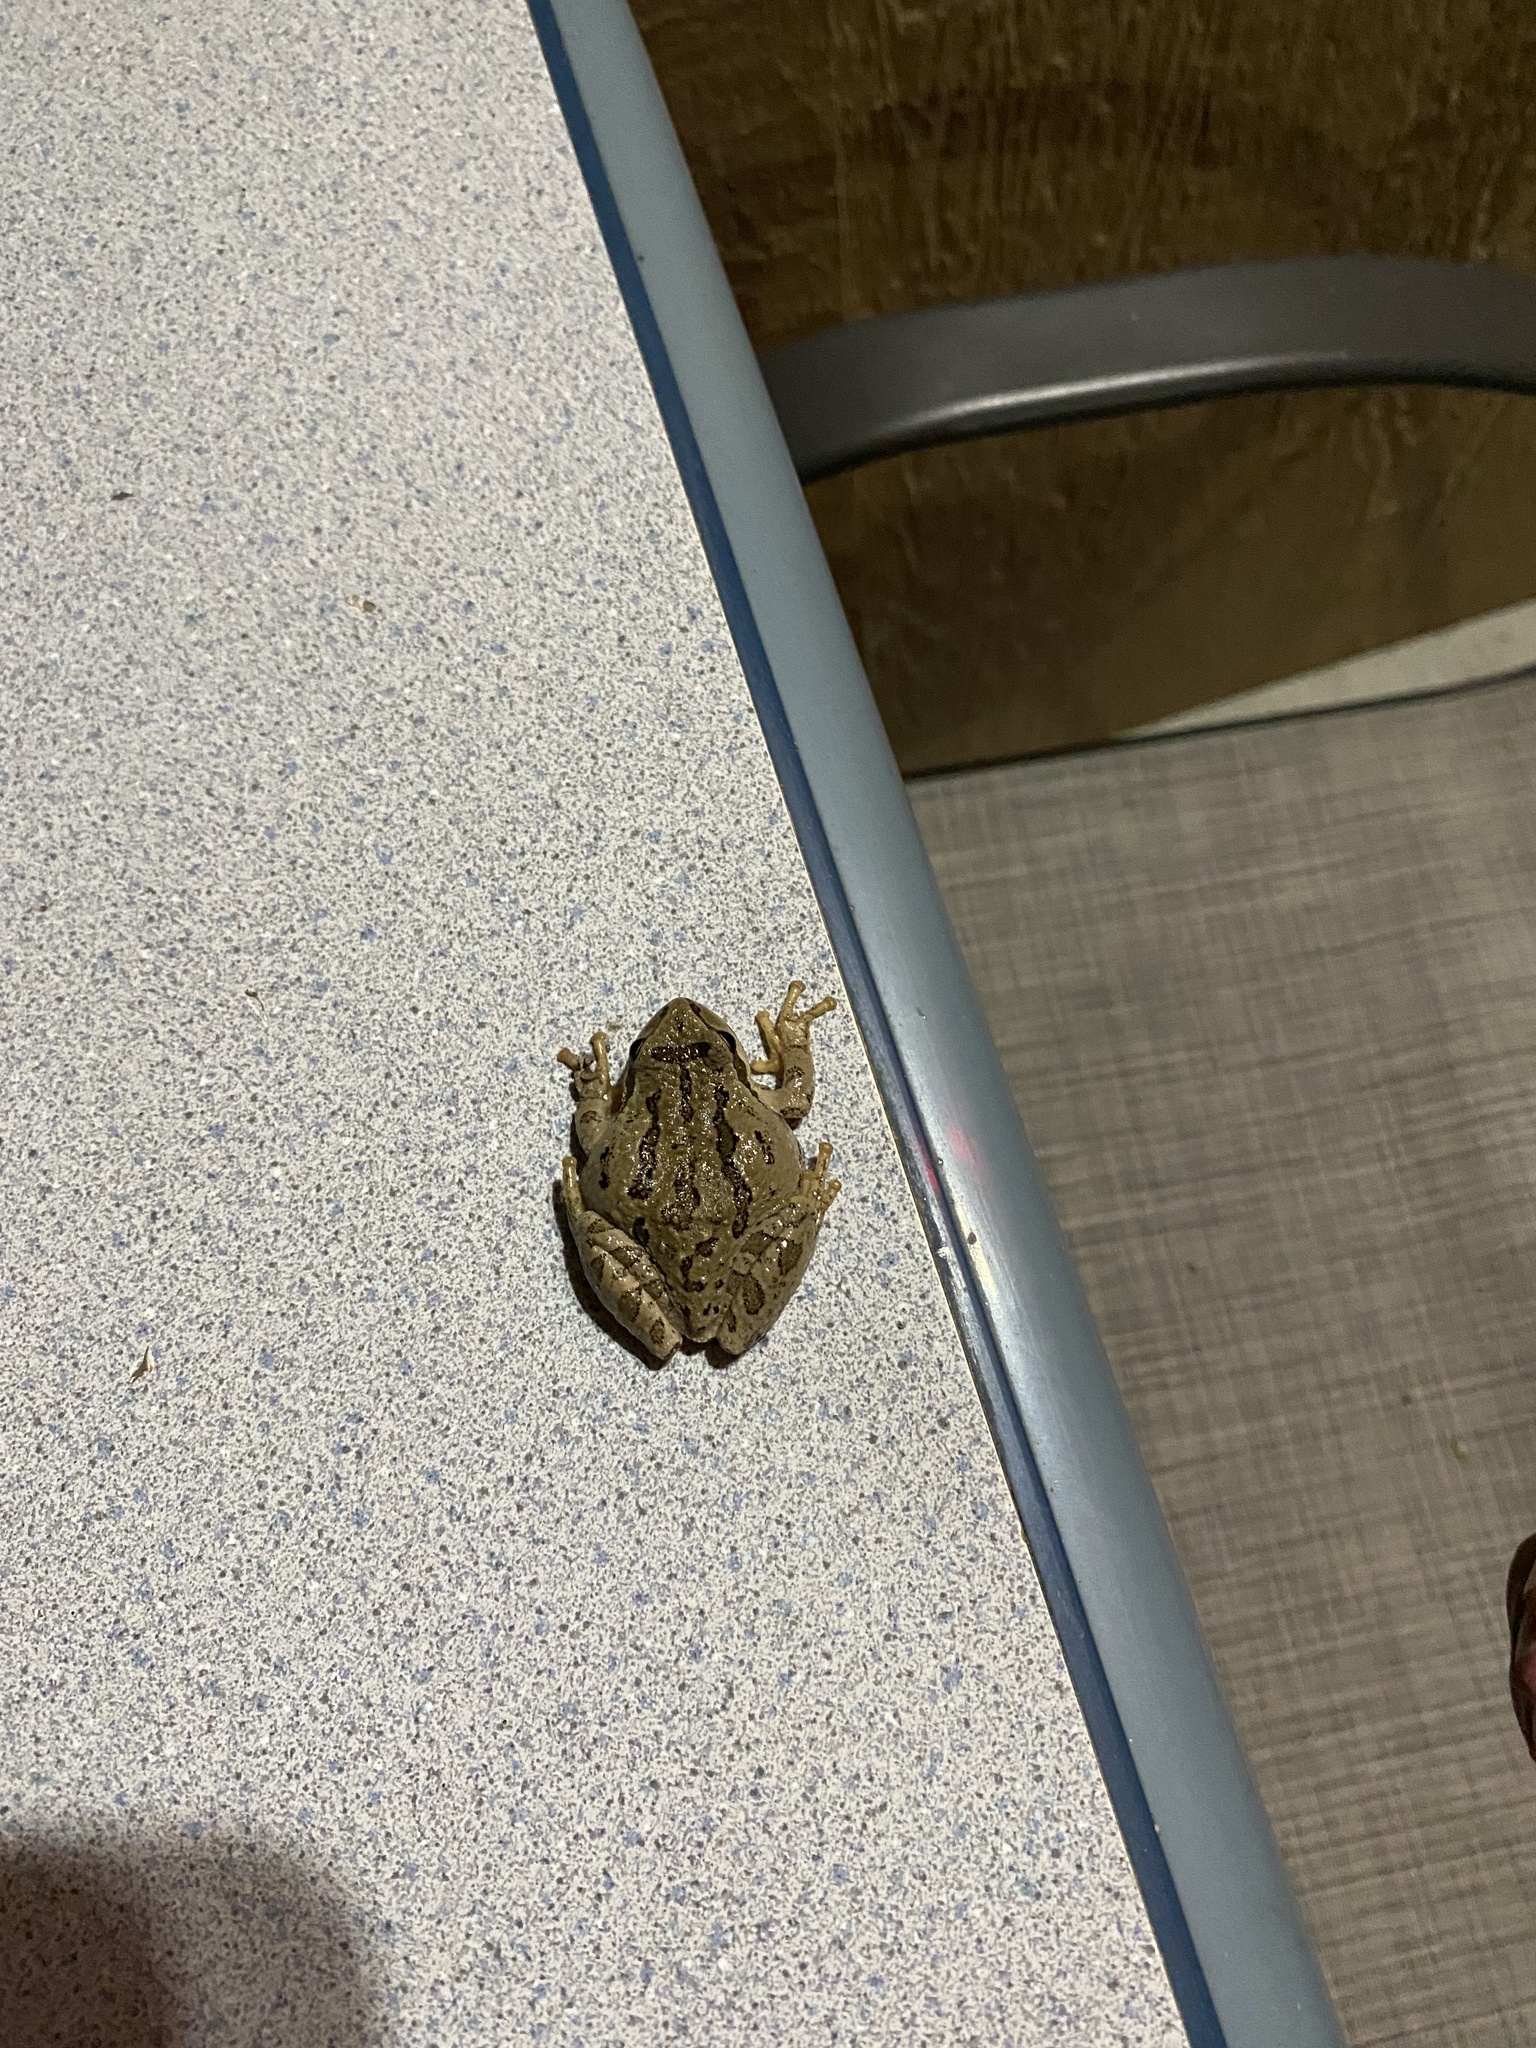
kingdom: Animalia
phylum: Chordata
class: Amphibia
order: Anura
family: Hylidae
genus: Pseudacris
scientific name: Pseudacris regilla
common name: Pacific chorus frog
